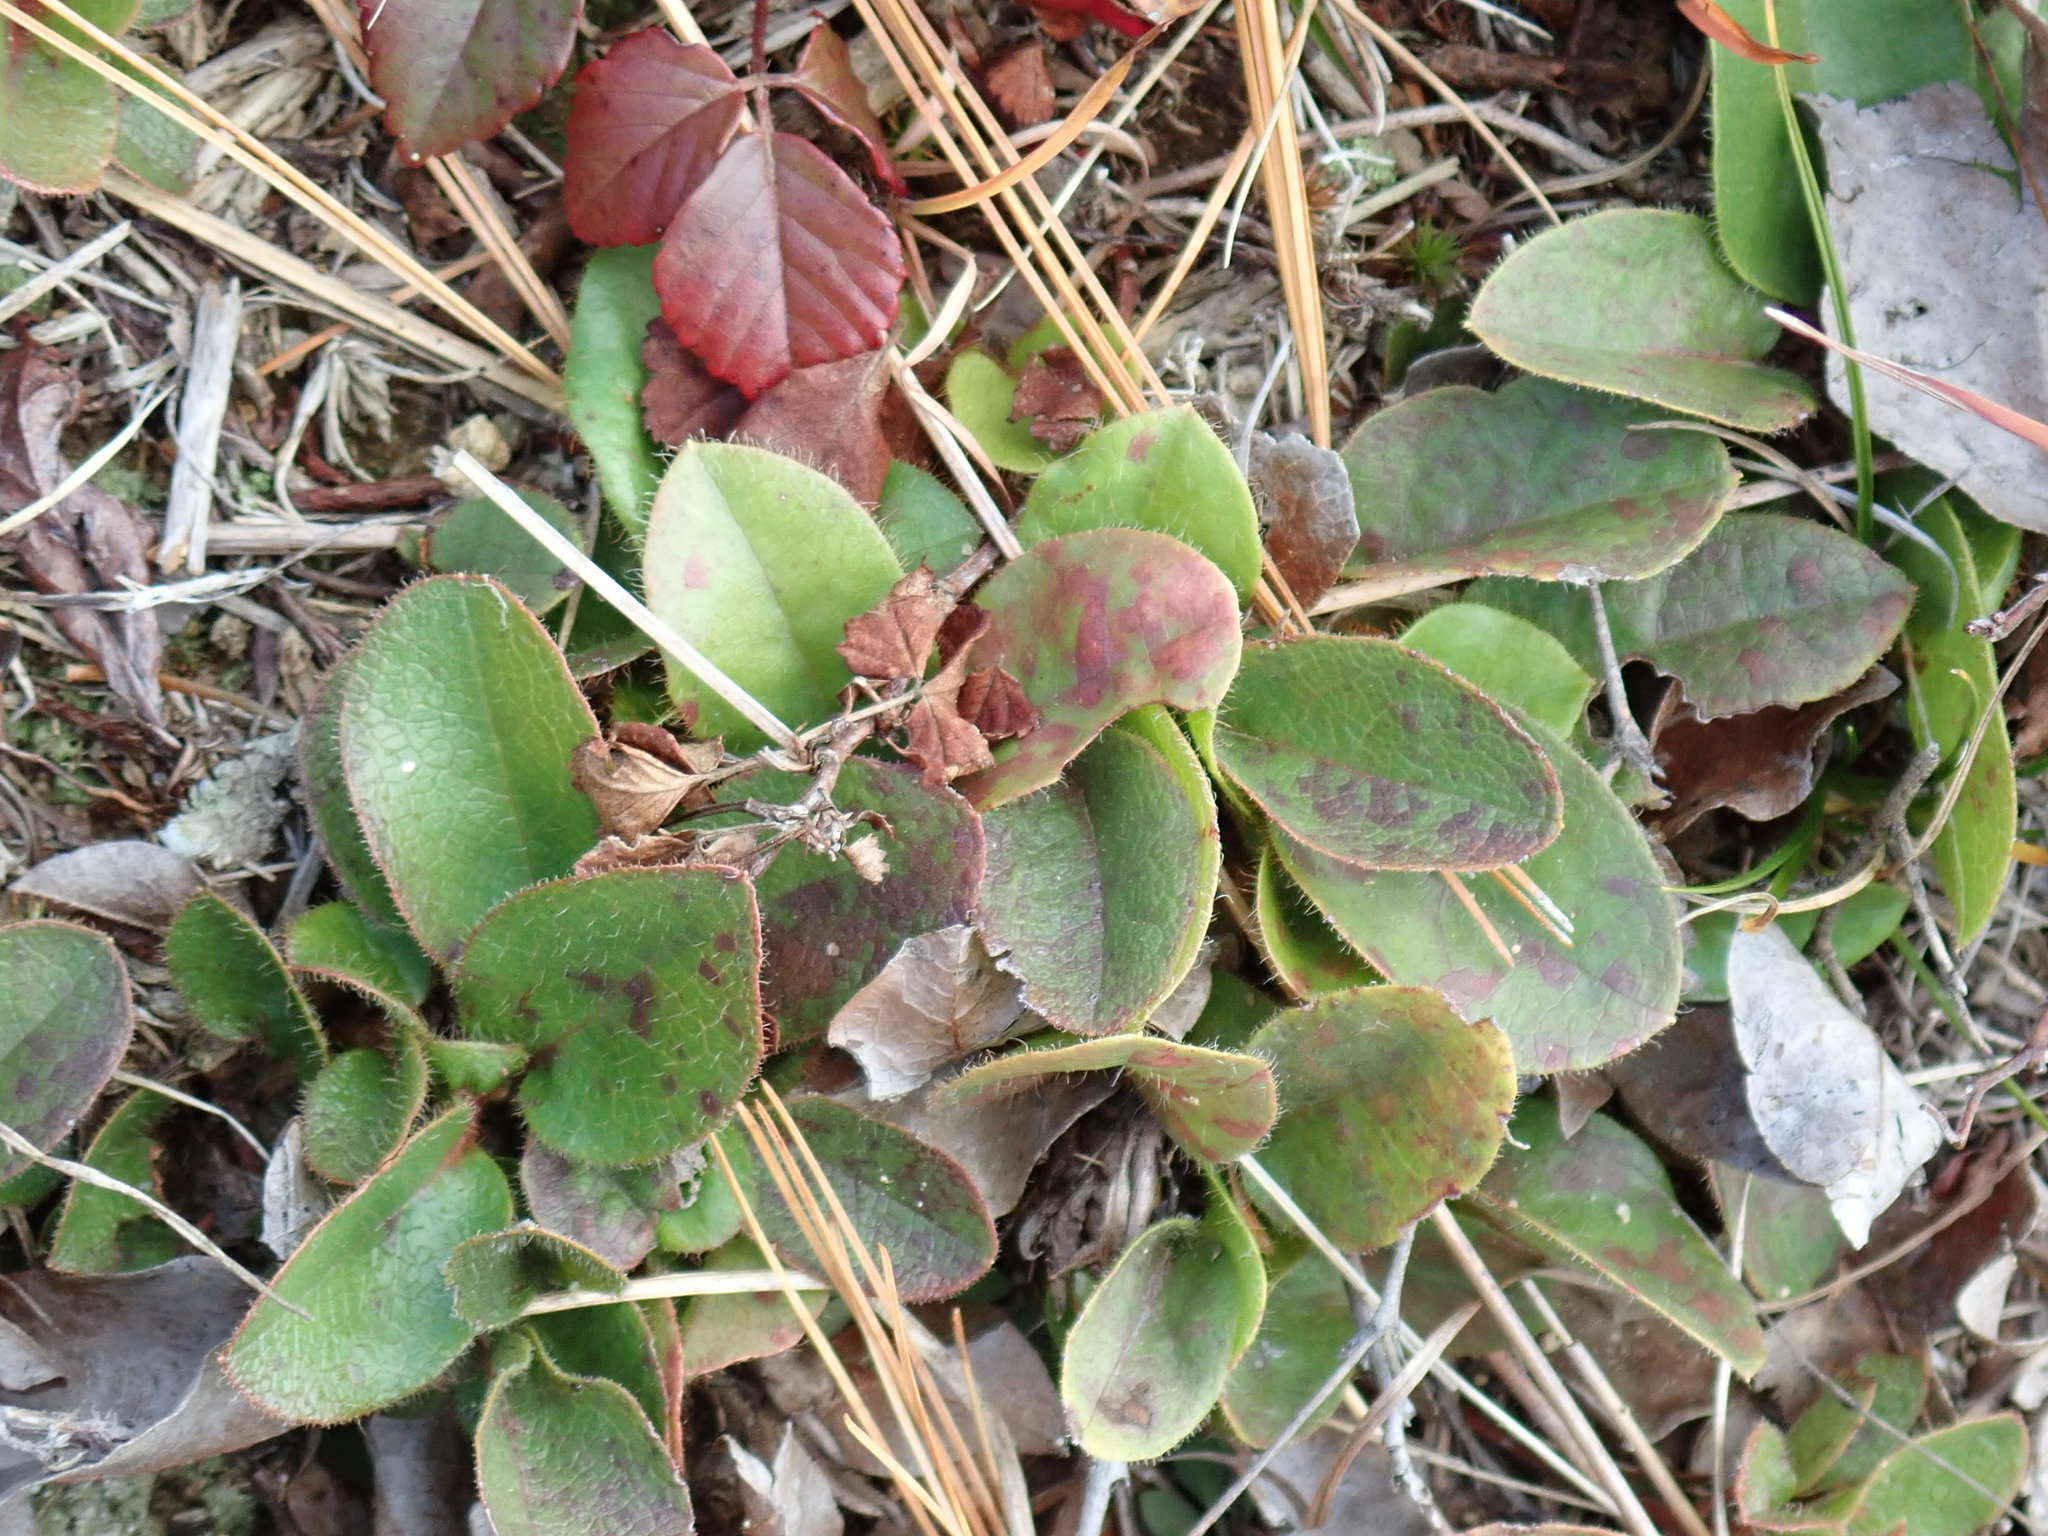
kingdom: Plantae
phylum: Tracheophyta
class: Magnoliopsida
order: Ericales
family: Ericaceae
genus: Epigaea
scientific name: Epigaea repens
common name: Gravelroot
